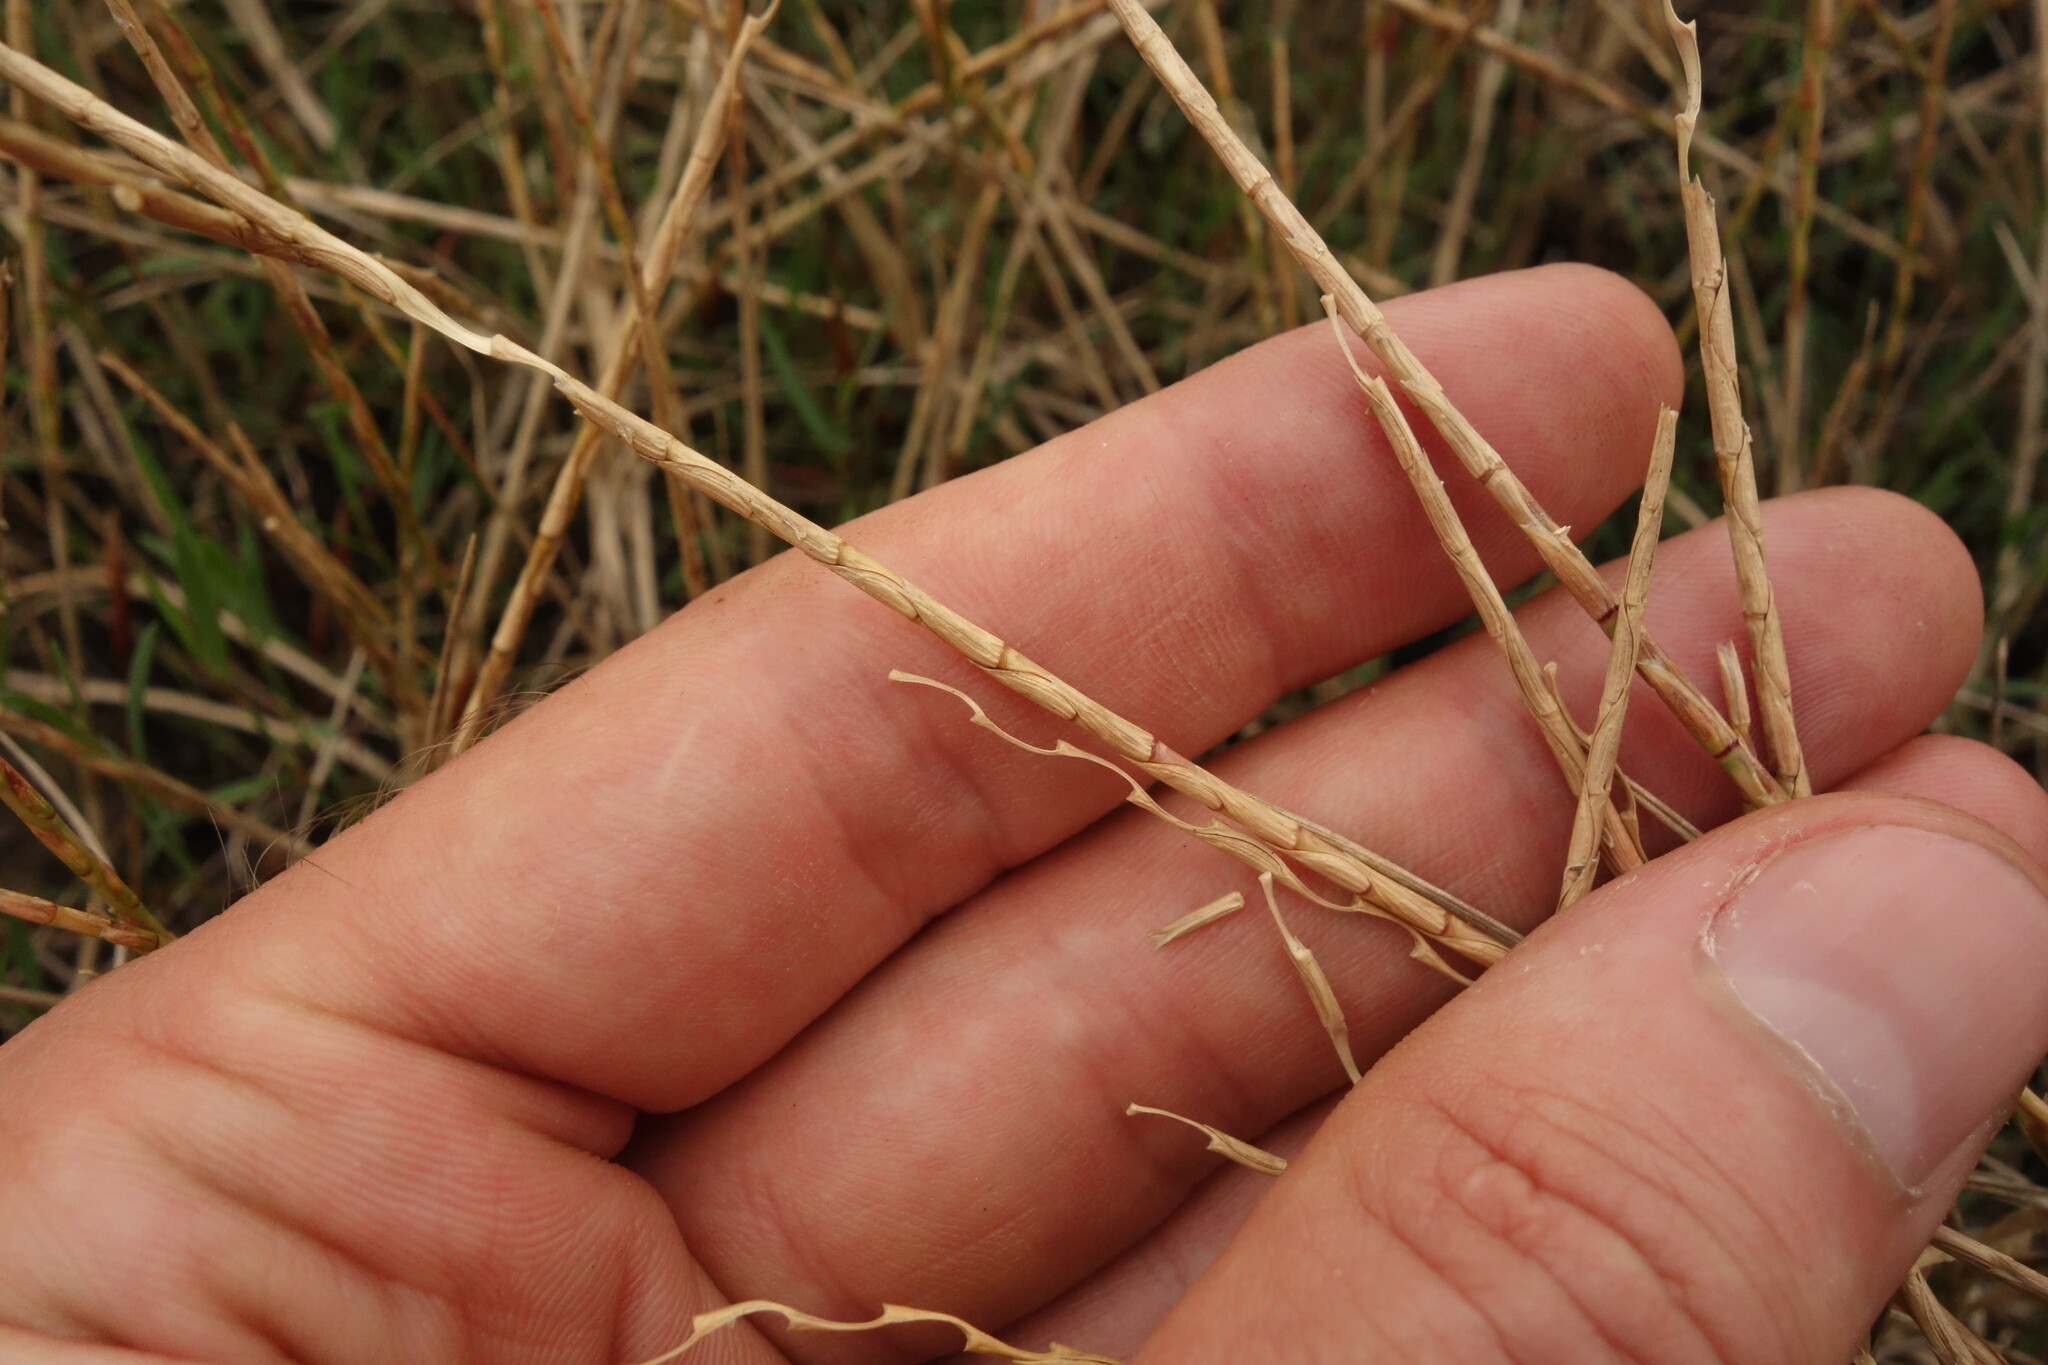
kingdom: Plantae
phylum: Tracheophyta
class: Liliopsida
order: Poales
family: Poaceae
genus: Pholiurus
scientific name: Pholiurus pannonicus
